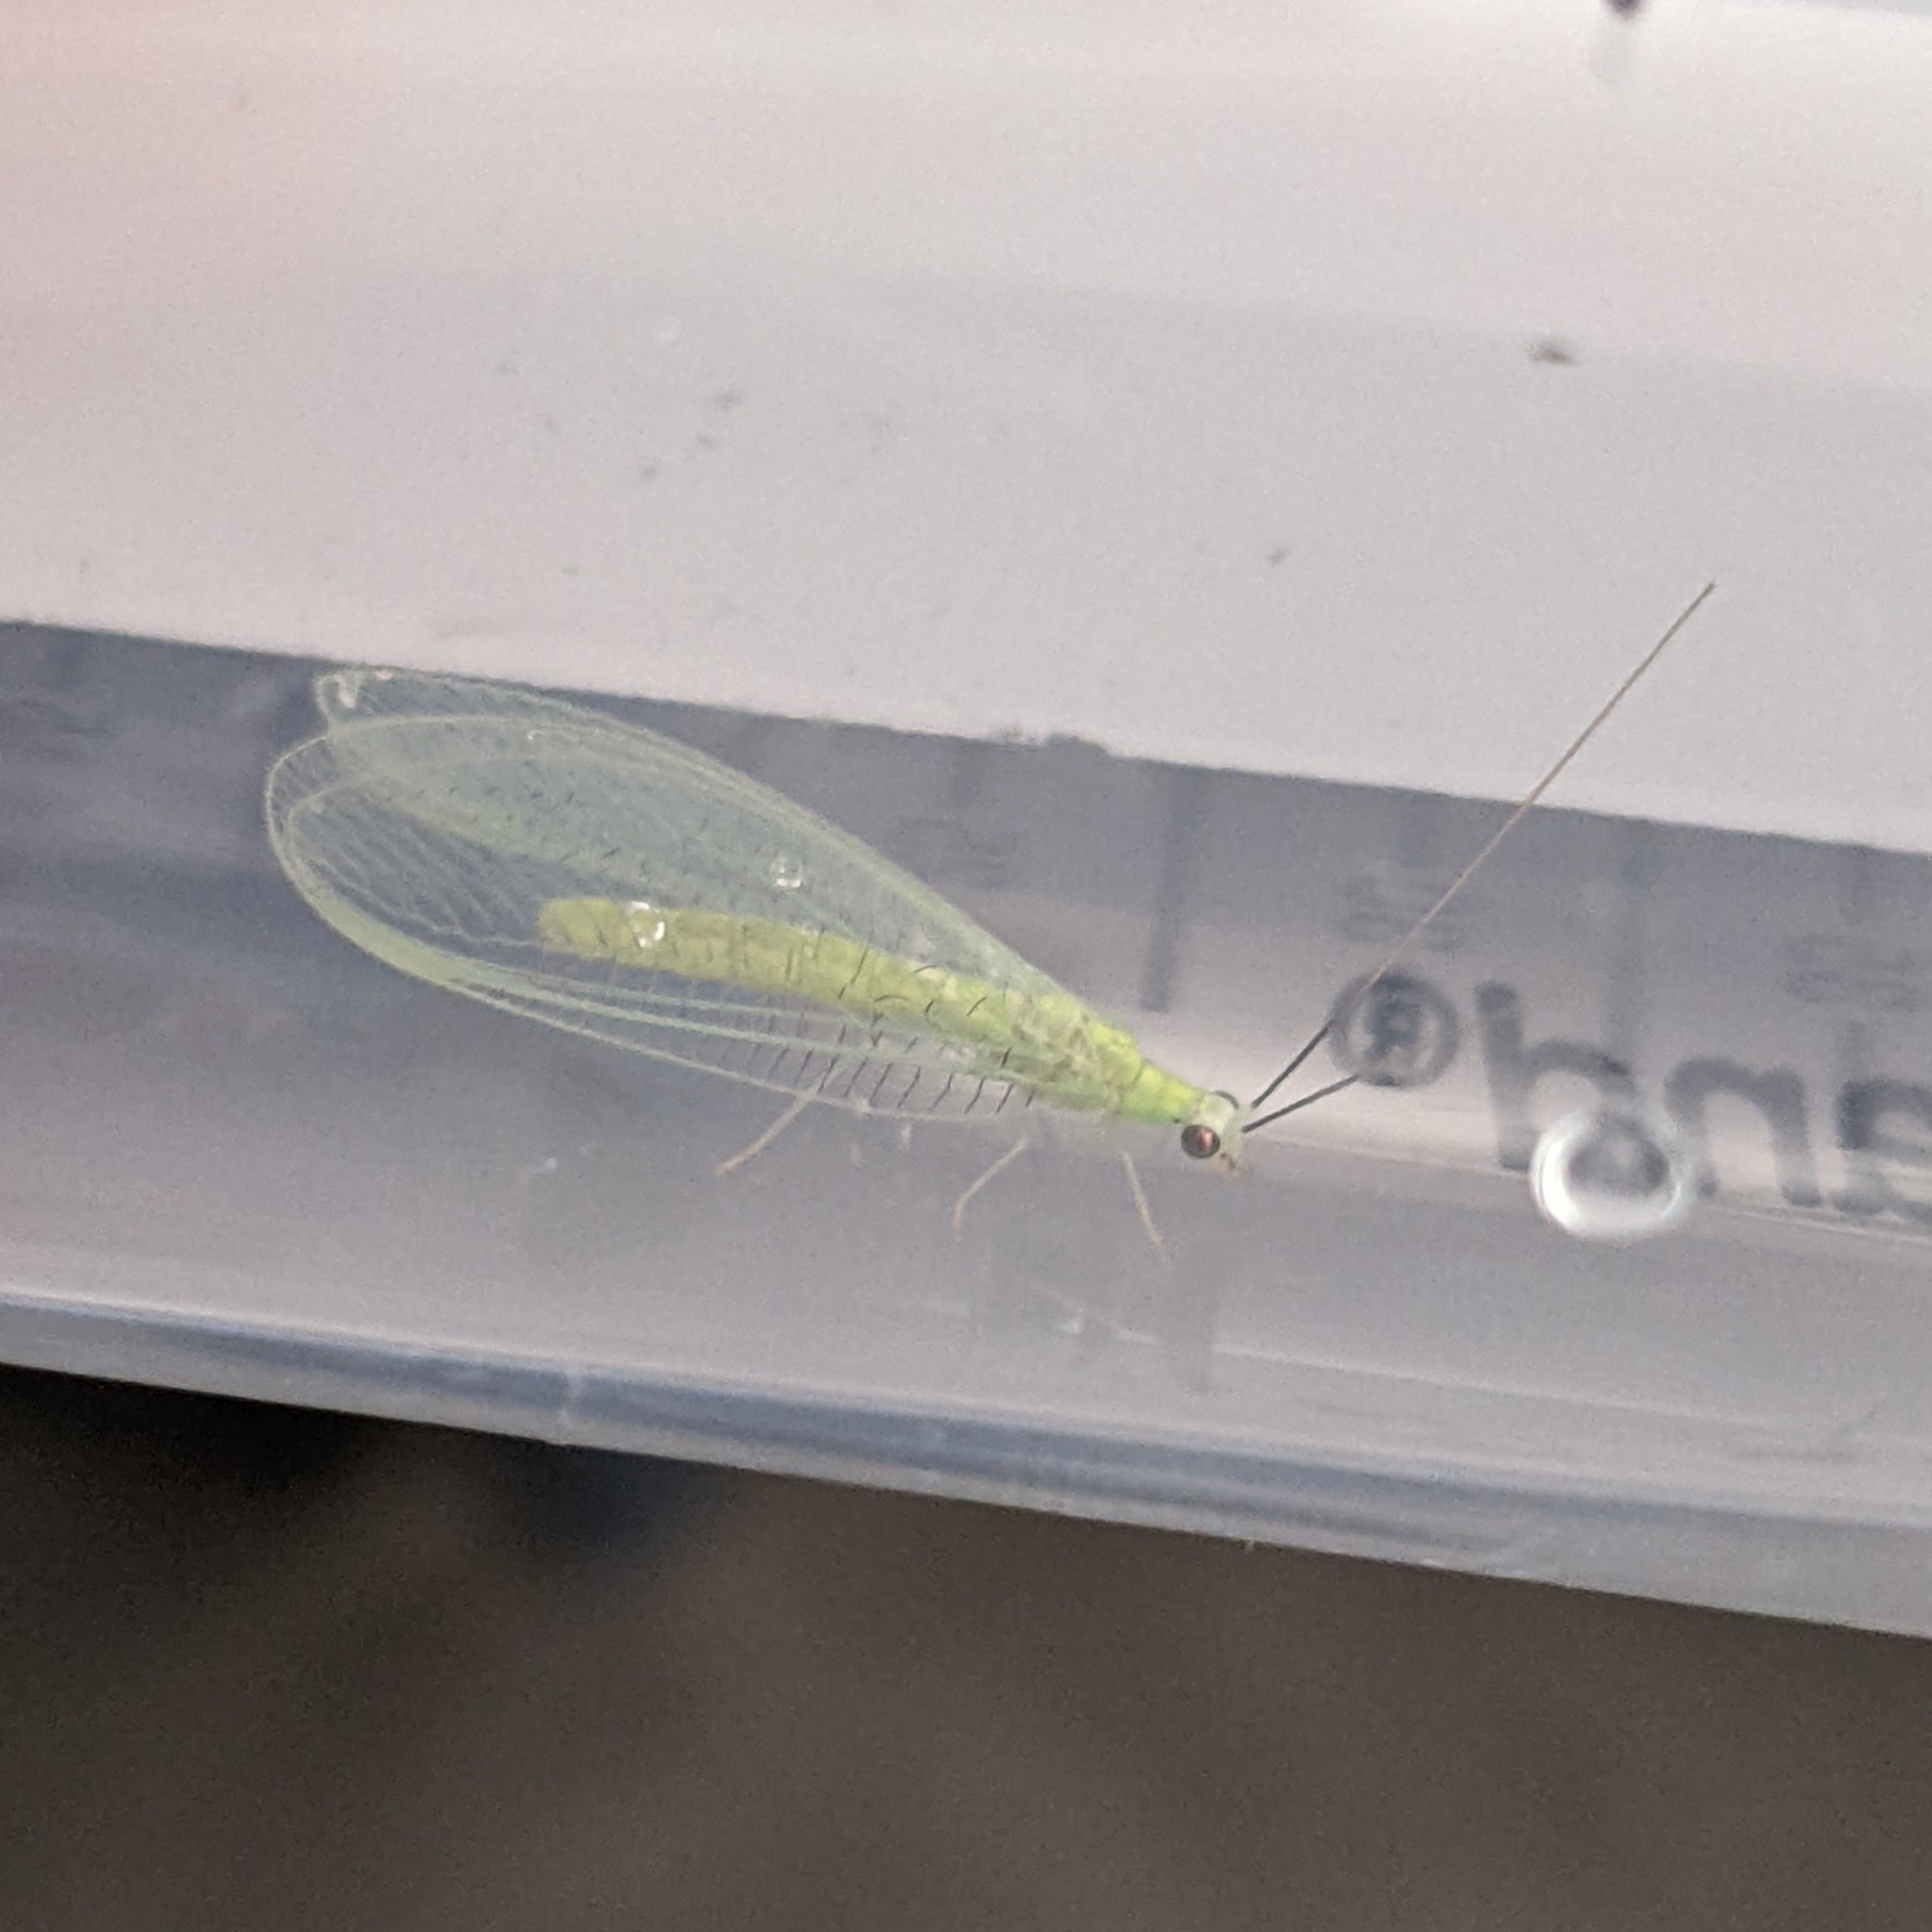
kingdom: Animalia
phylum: Arthropoda
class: Insecta
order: Neuroptera
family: Chrysopidae
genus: Chrysopa
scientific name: Chrysopa nigricornis
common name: Black-horned green lacewing
